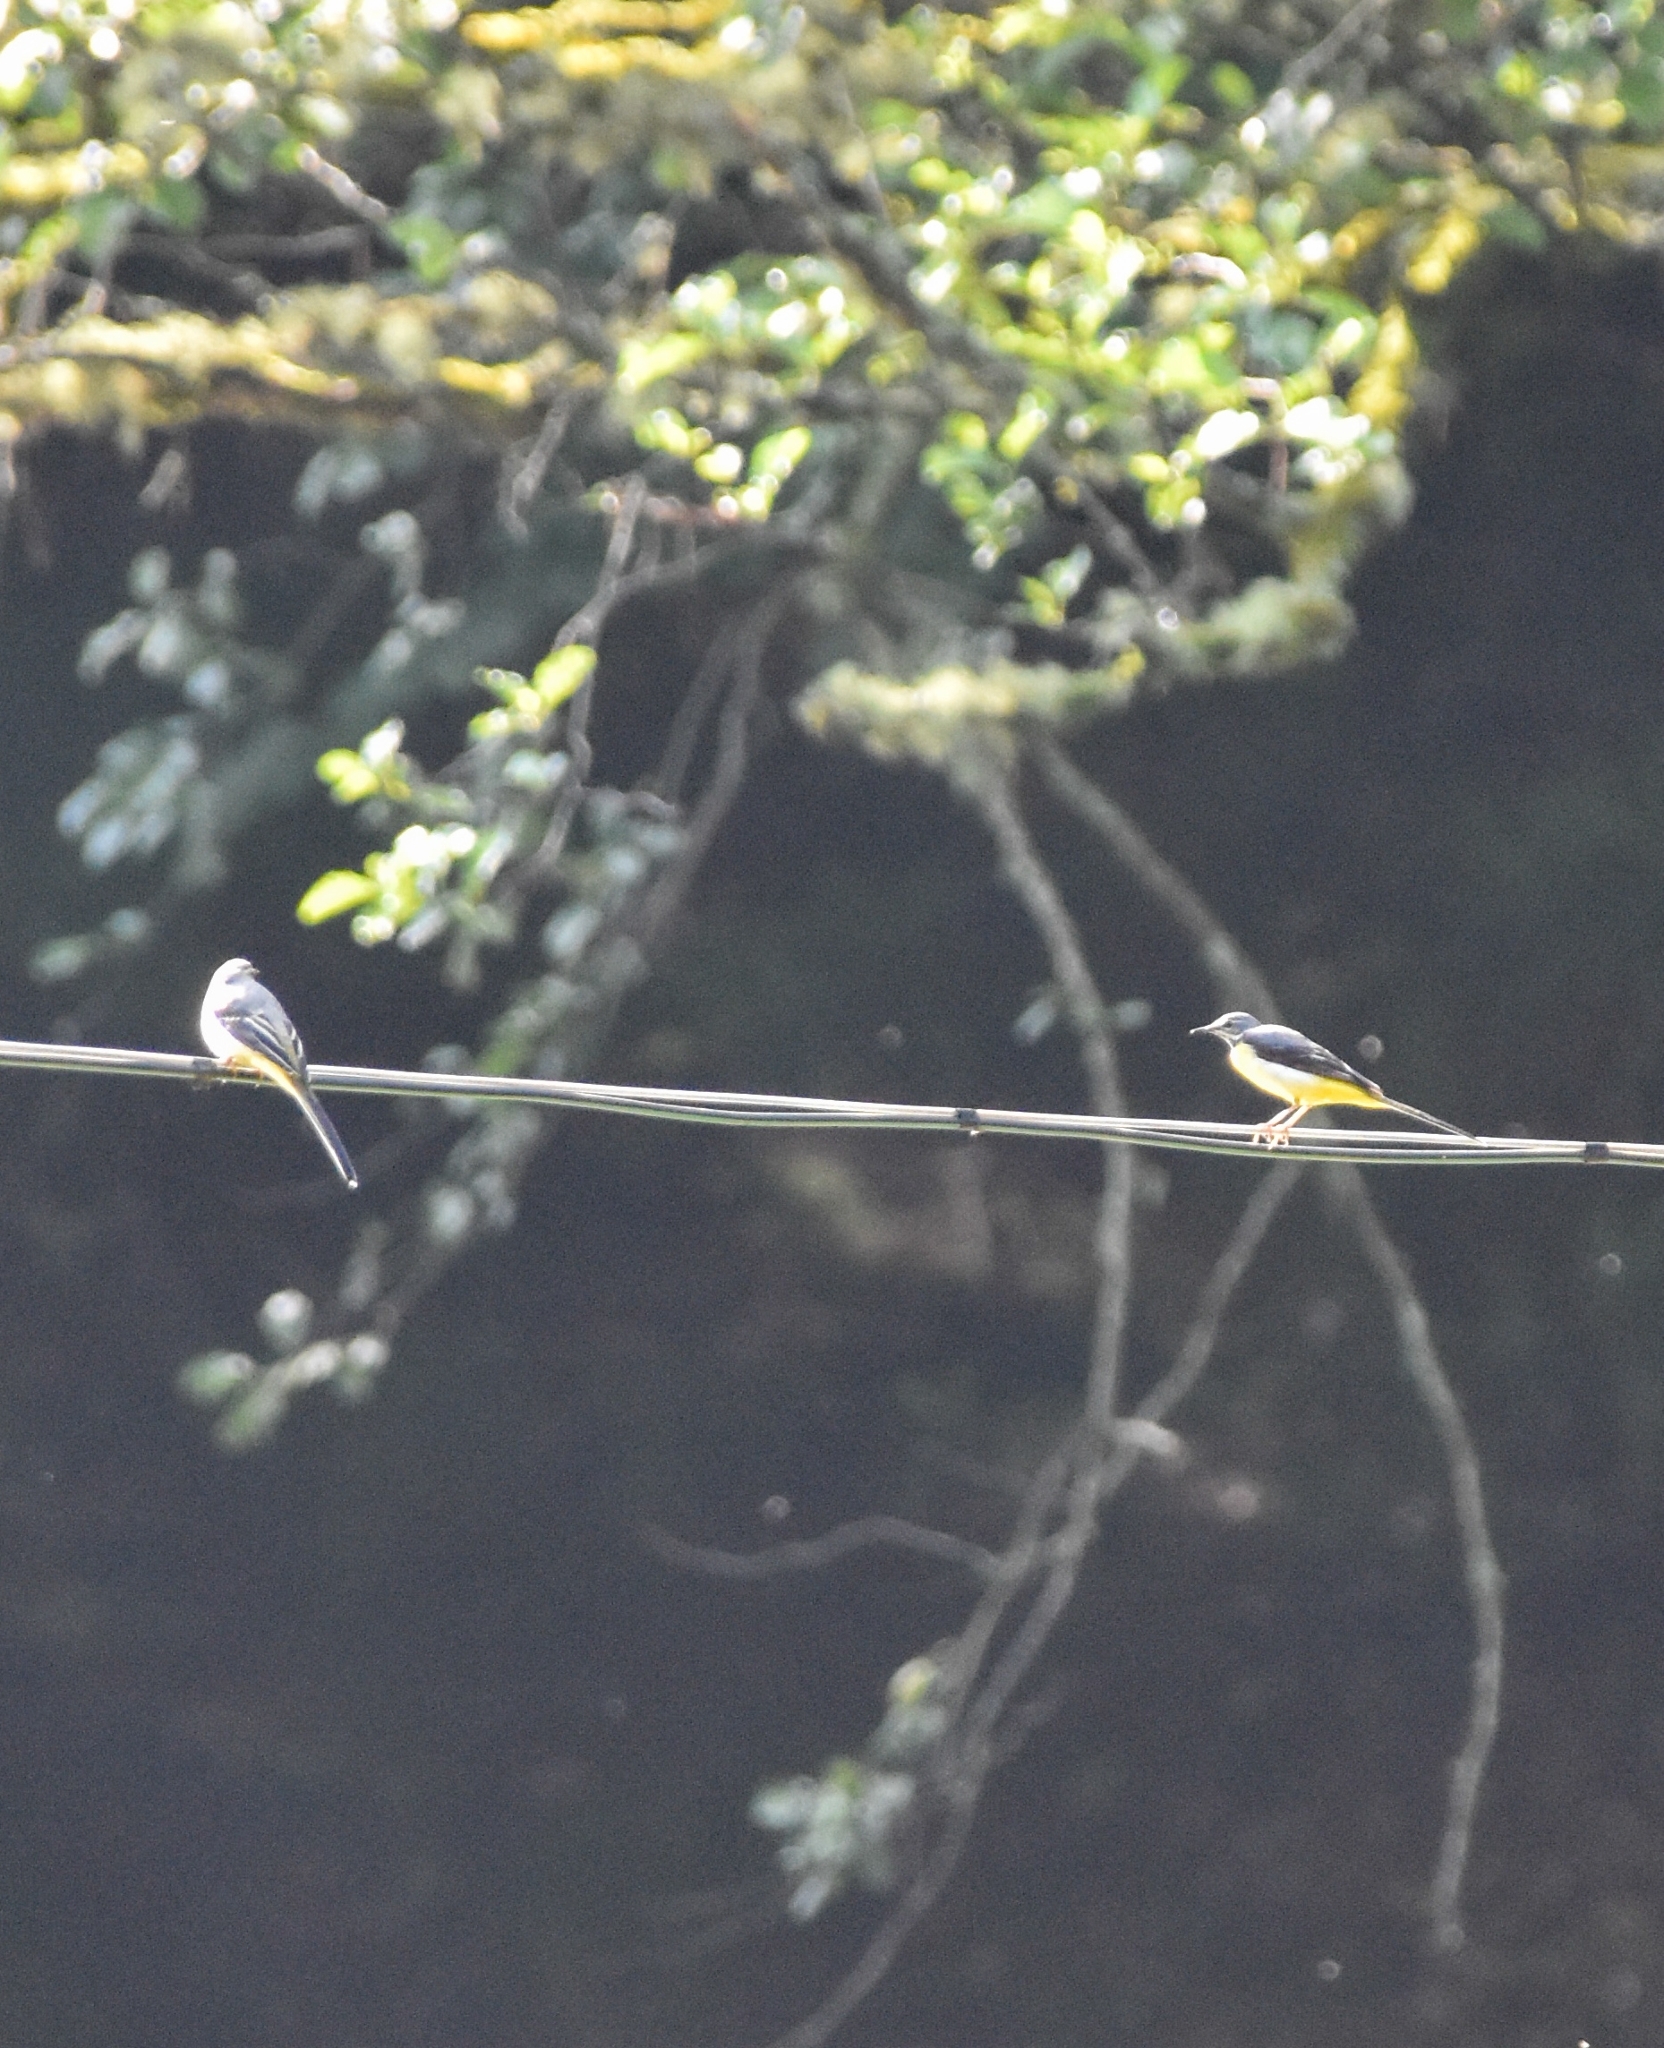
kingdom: Animalia
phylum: Chordata
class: Aves
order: Passeriformes
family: Motacillidae
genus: Motacilla
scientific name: Motacilla cinerea
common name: Grey wagtail
